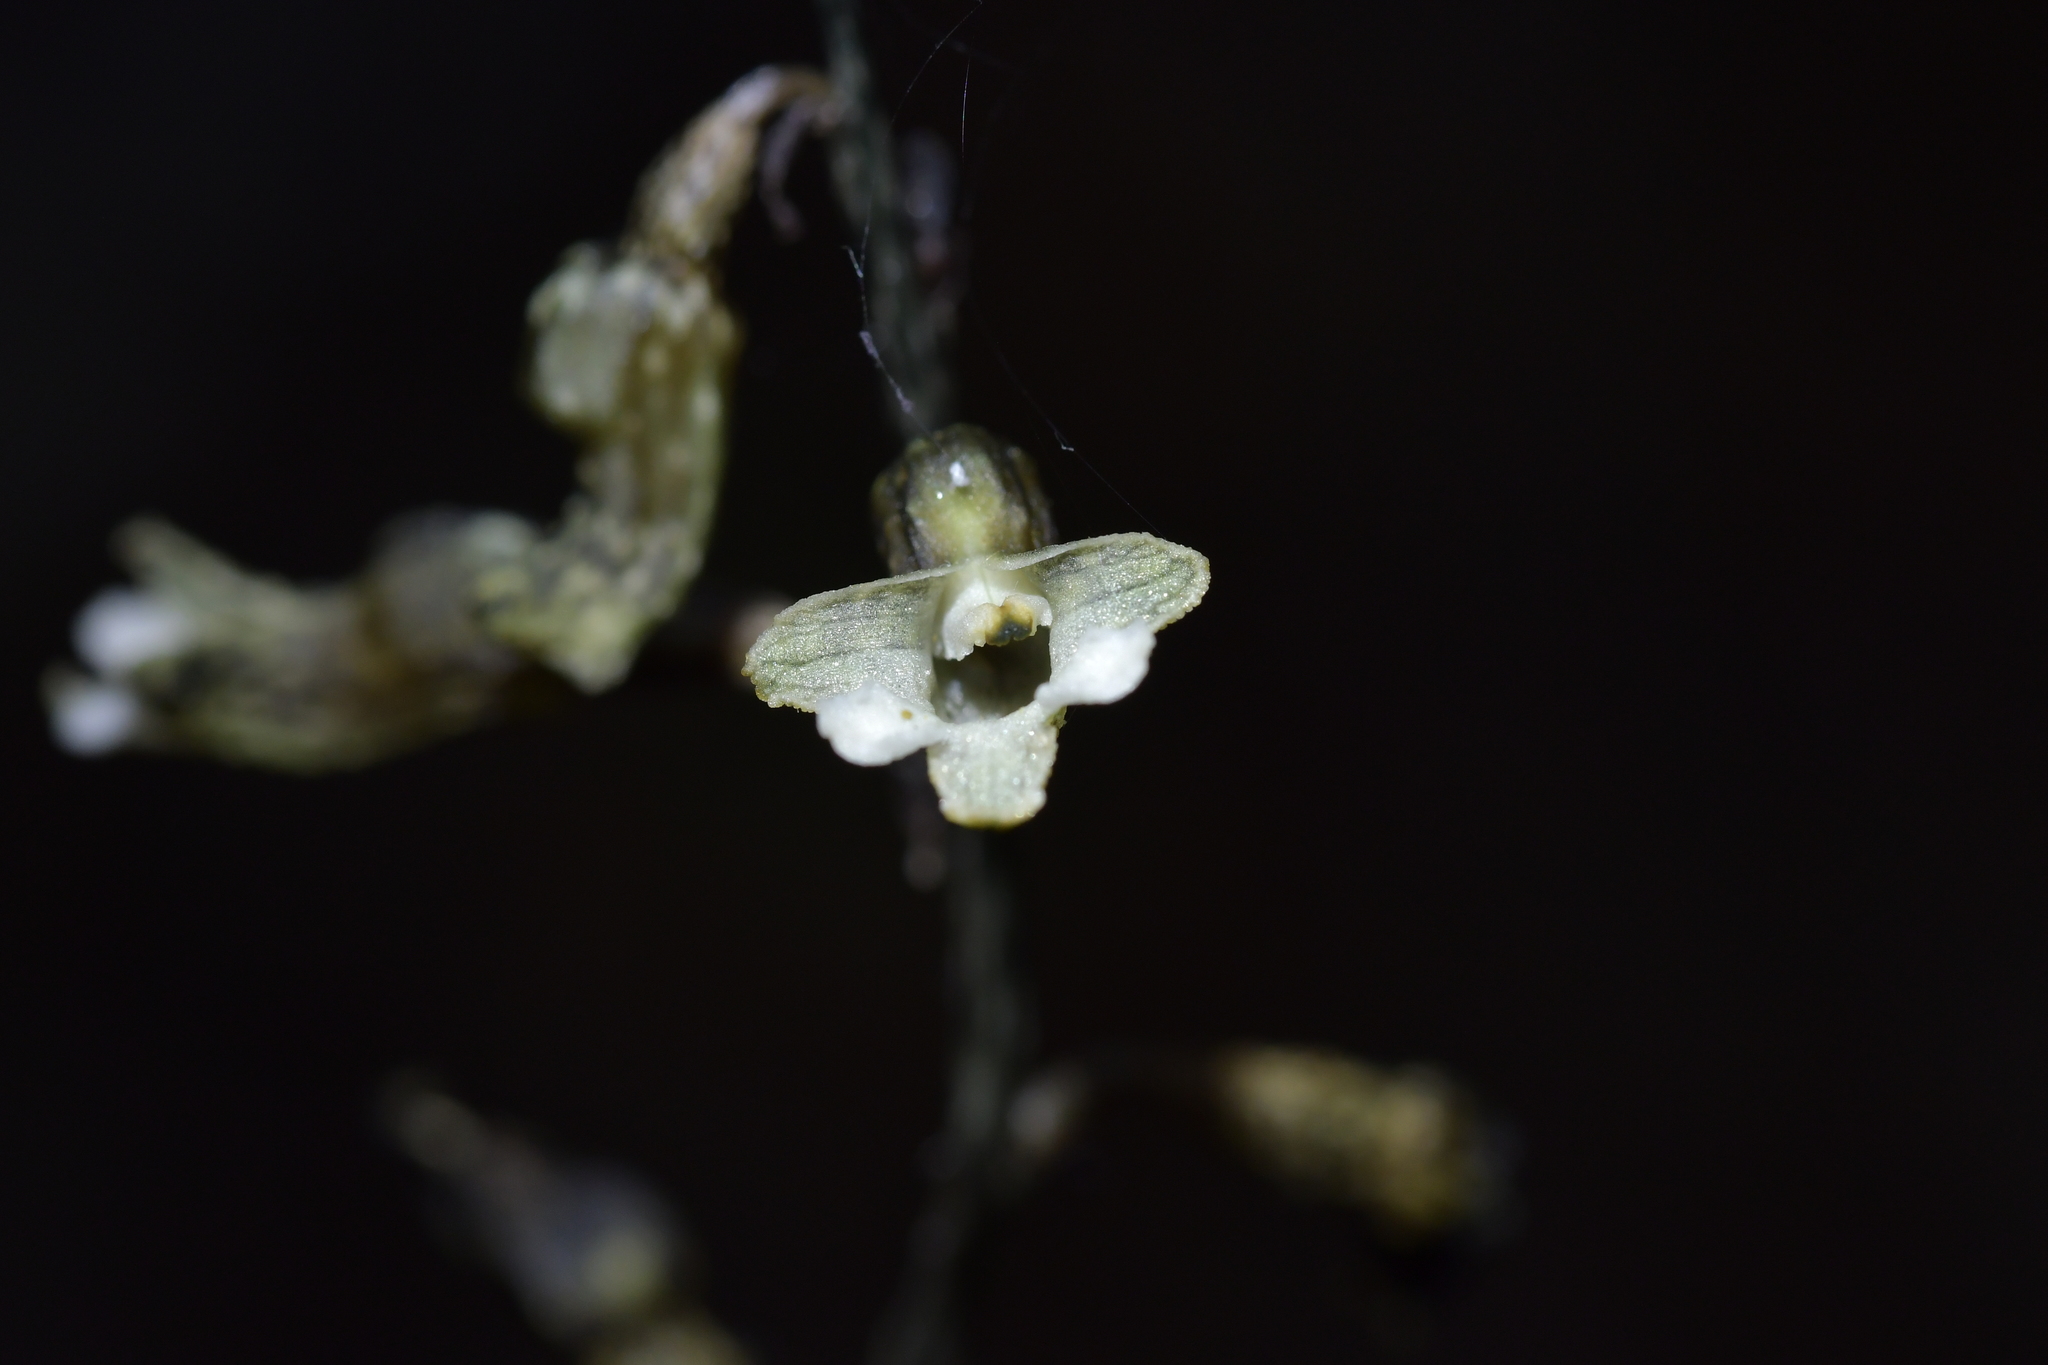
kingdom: Plantae
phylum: Tracheophyta
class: Liliopsida
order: Asparagales
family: Orchidaceae
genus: Gastrodia
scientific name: Gastrodia cunninghamii
